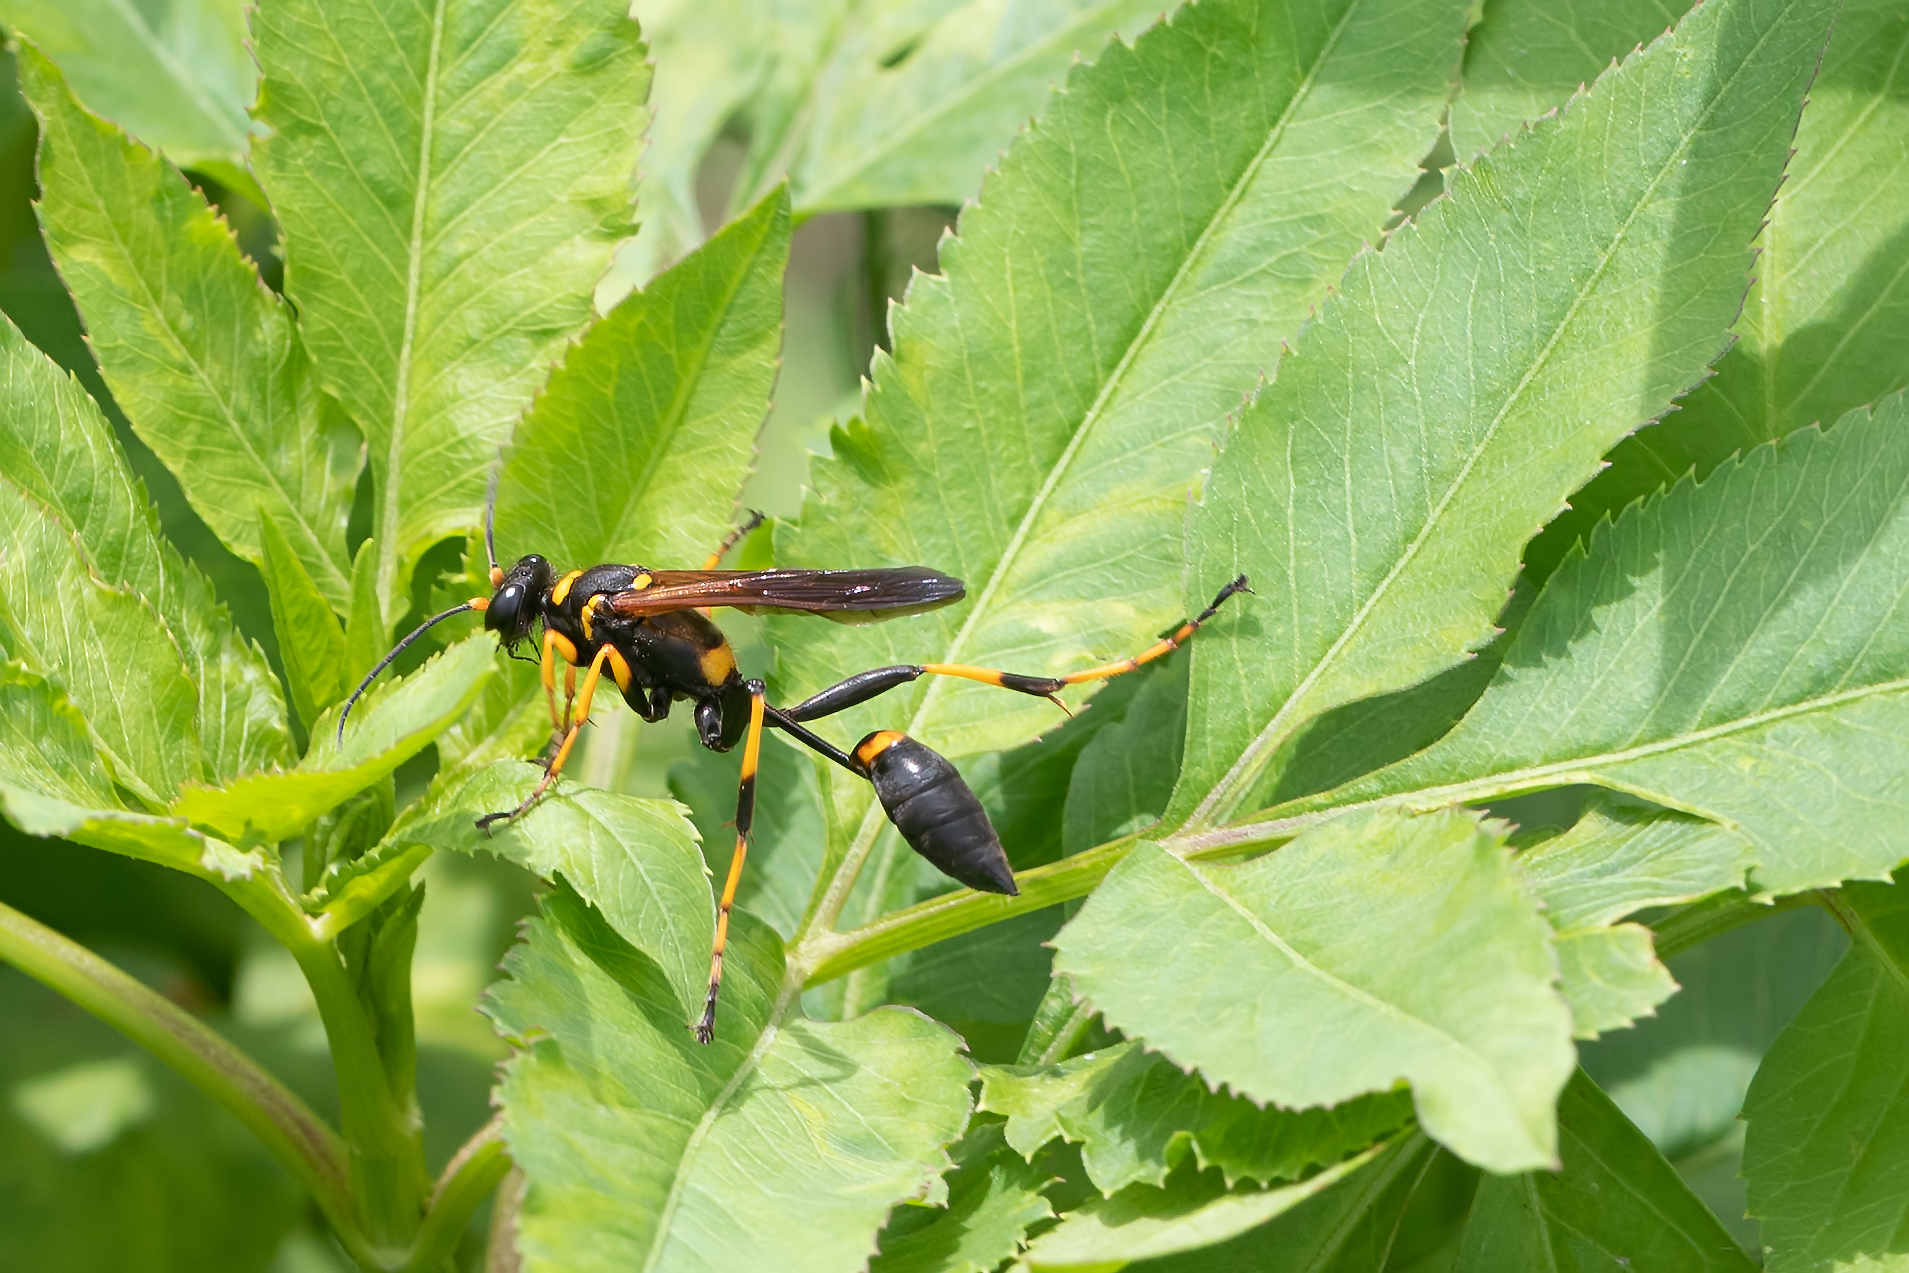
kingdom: Animalia
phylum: Arthropoda
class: Insecta
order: Hymenoptera
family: Sphecidae
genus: Sceliphron
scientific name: Sceliphron caementarium
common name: Mud dauber
